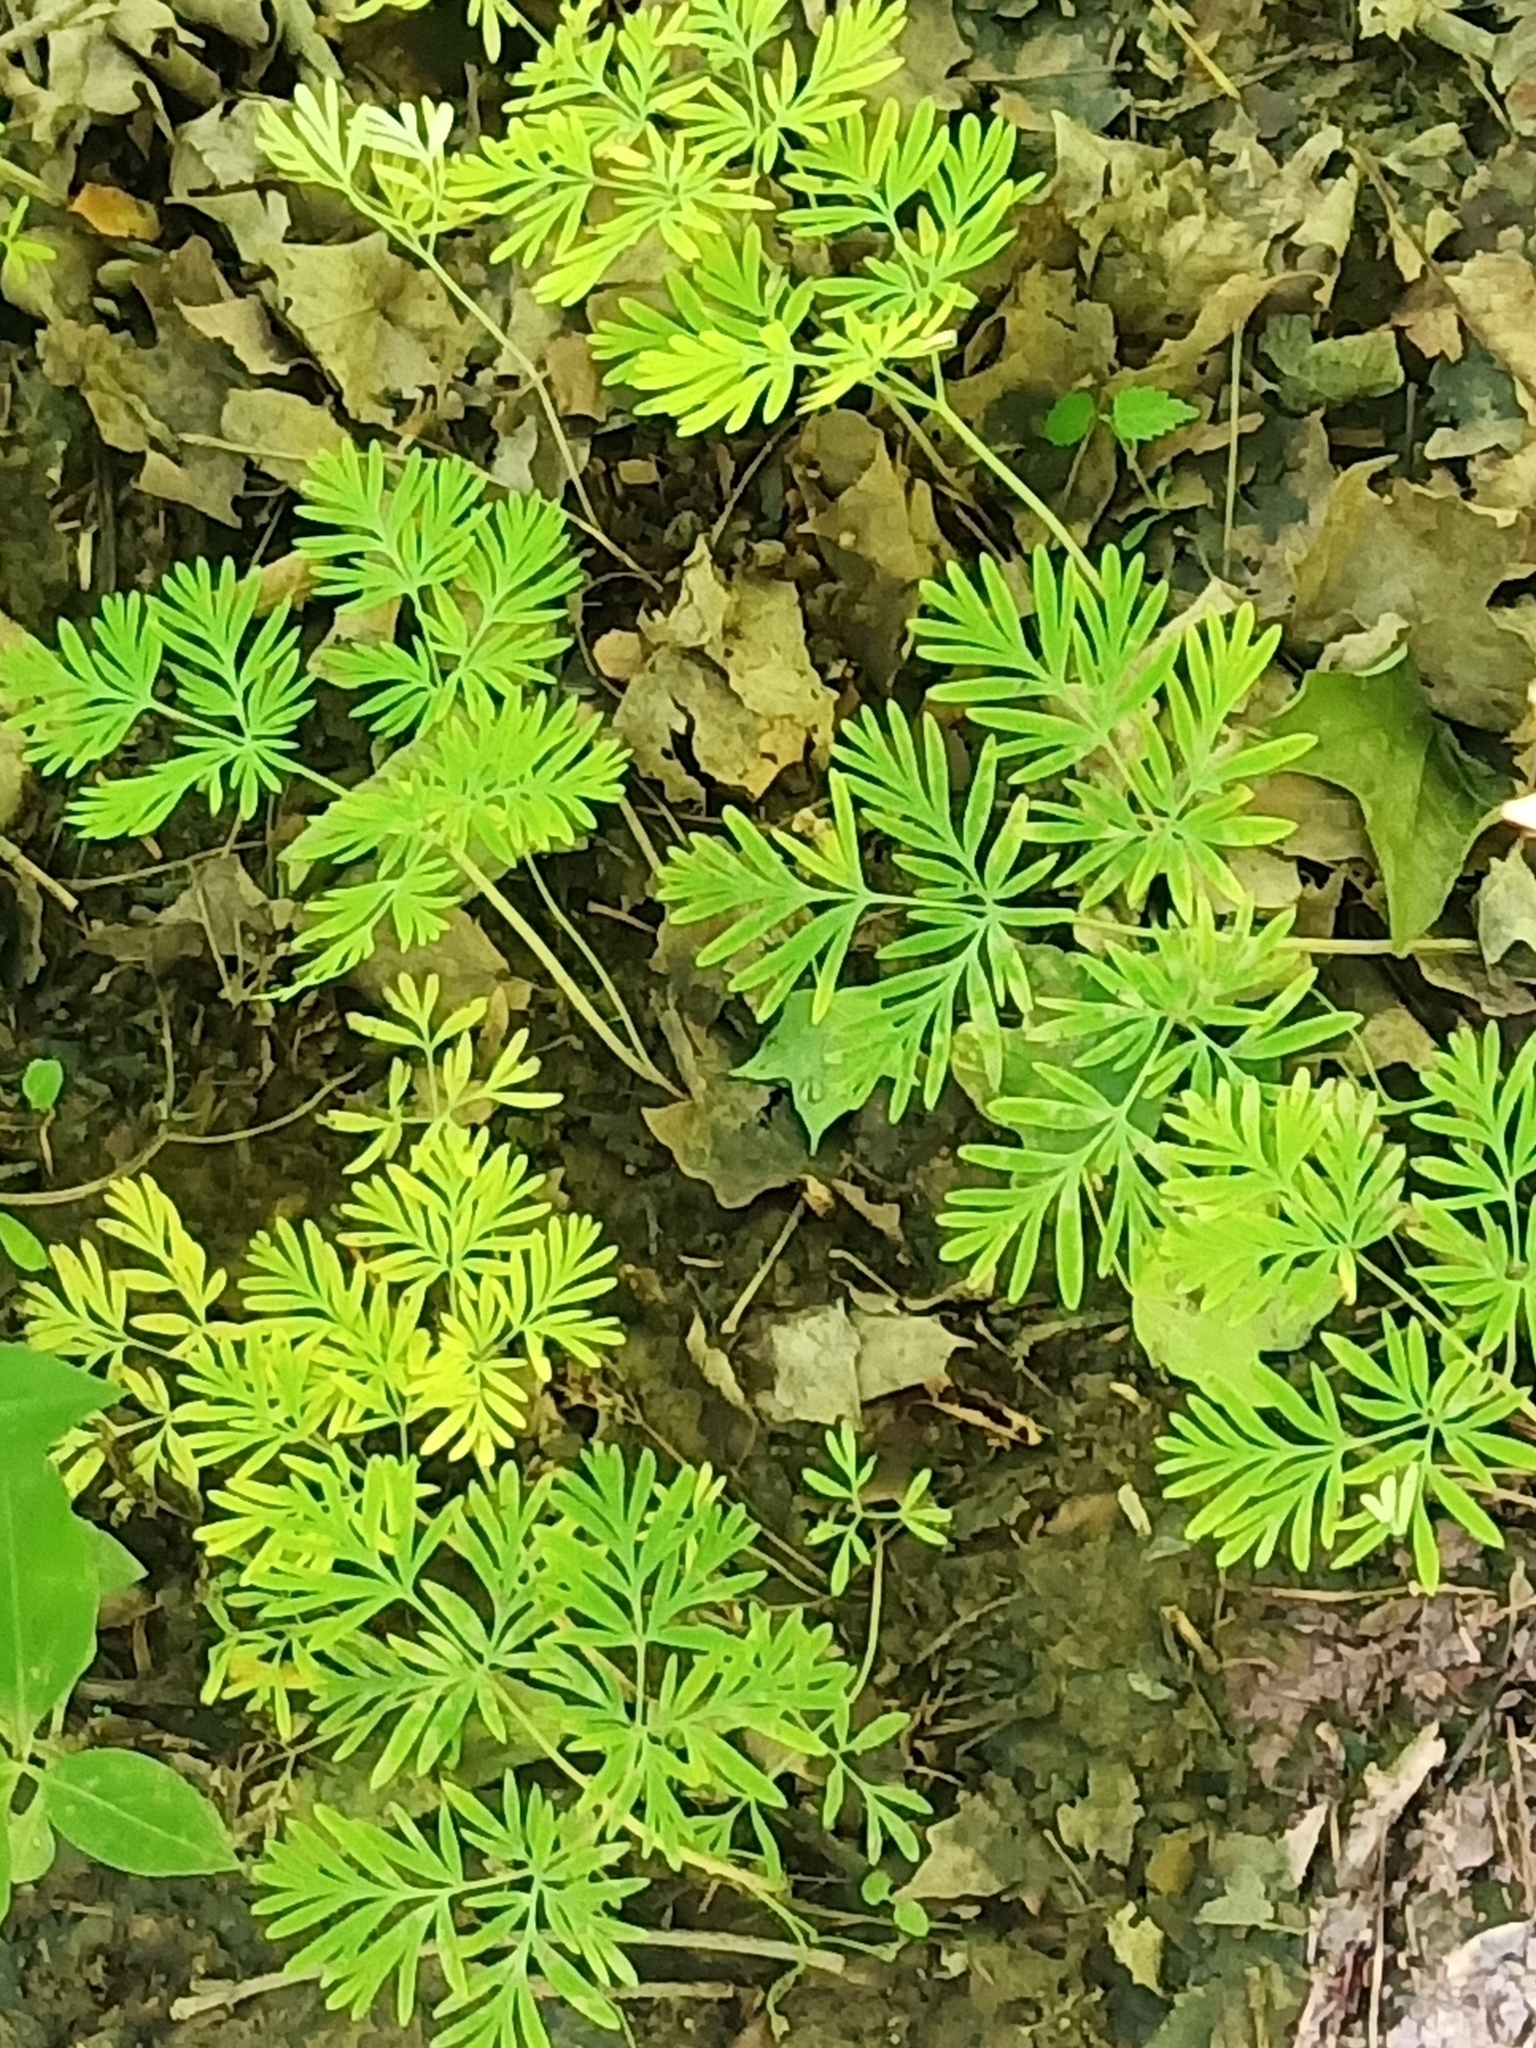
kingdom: Plantae
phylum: Tracheophyta
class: Magnoliopsida
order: Ranunculales
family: Papaveraceae
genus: Dicentra
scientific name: Dicentra
